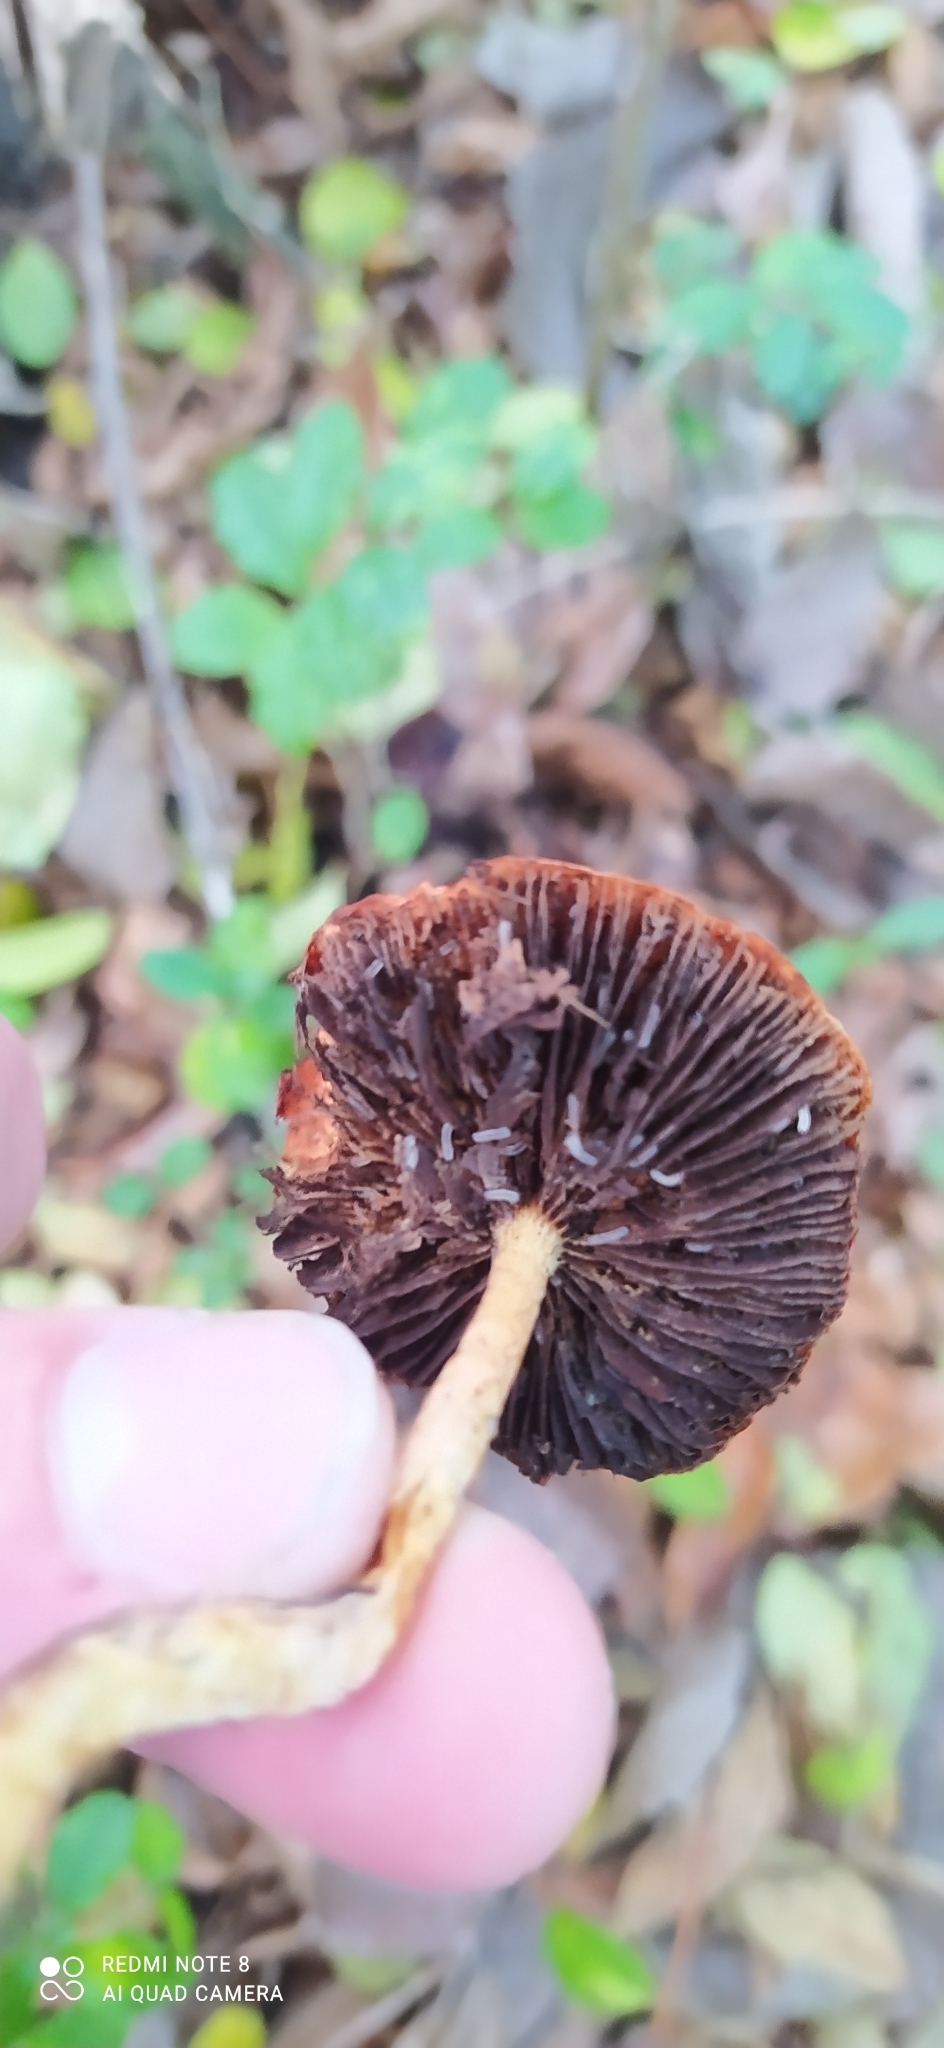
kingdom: Fungi
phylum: Basidiomycota
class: Agaricomycetes
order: Agaricales
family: Strophariaceae
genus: Leratiomyces
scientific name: Leratiomyces ceres
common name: Redlead roundhead
